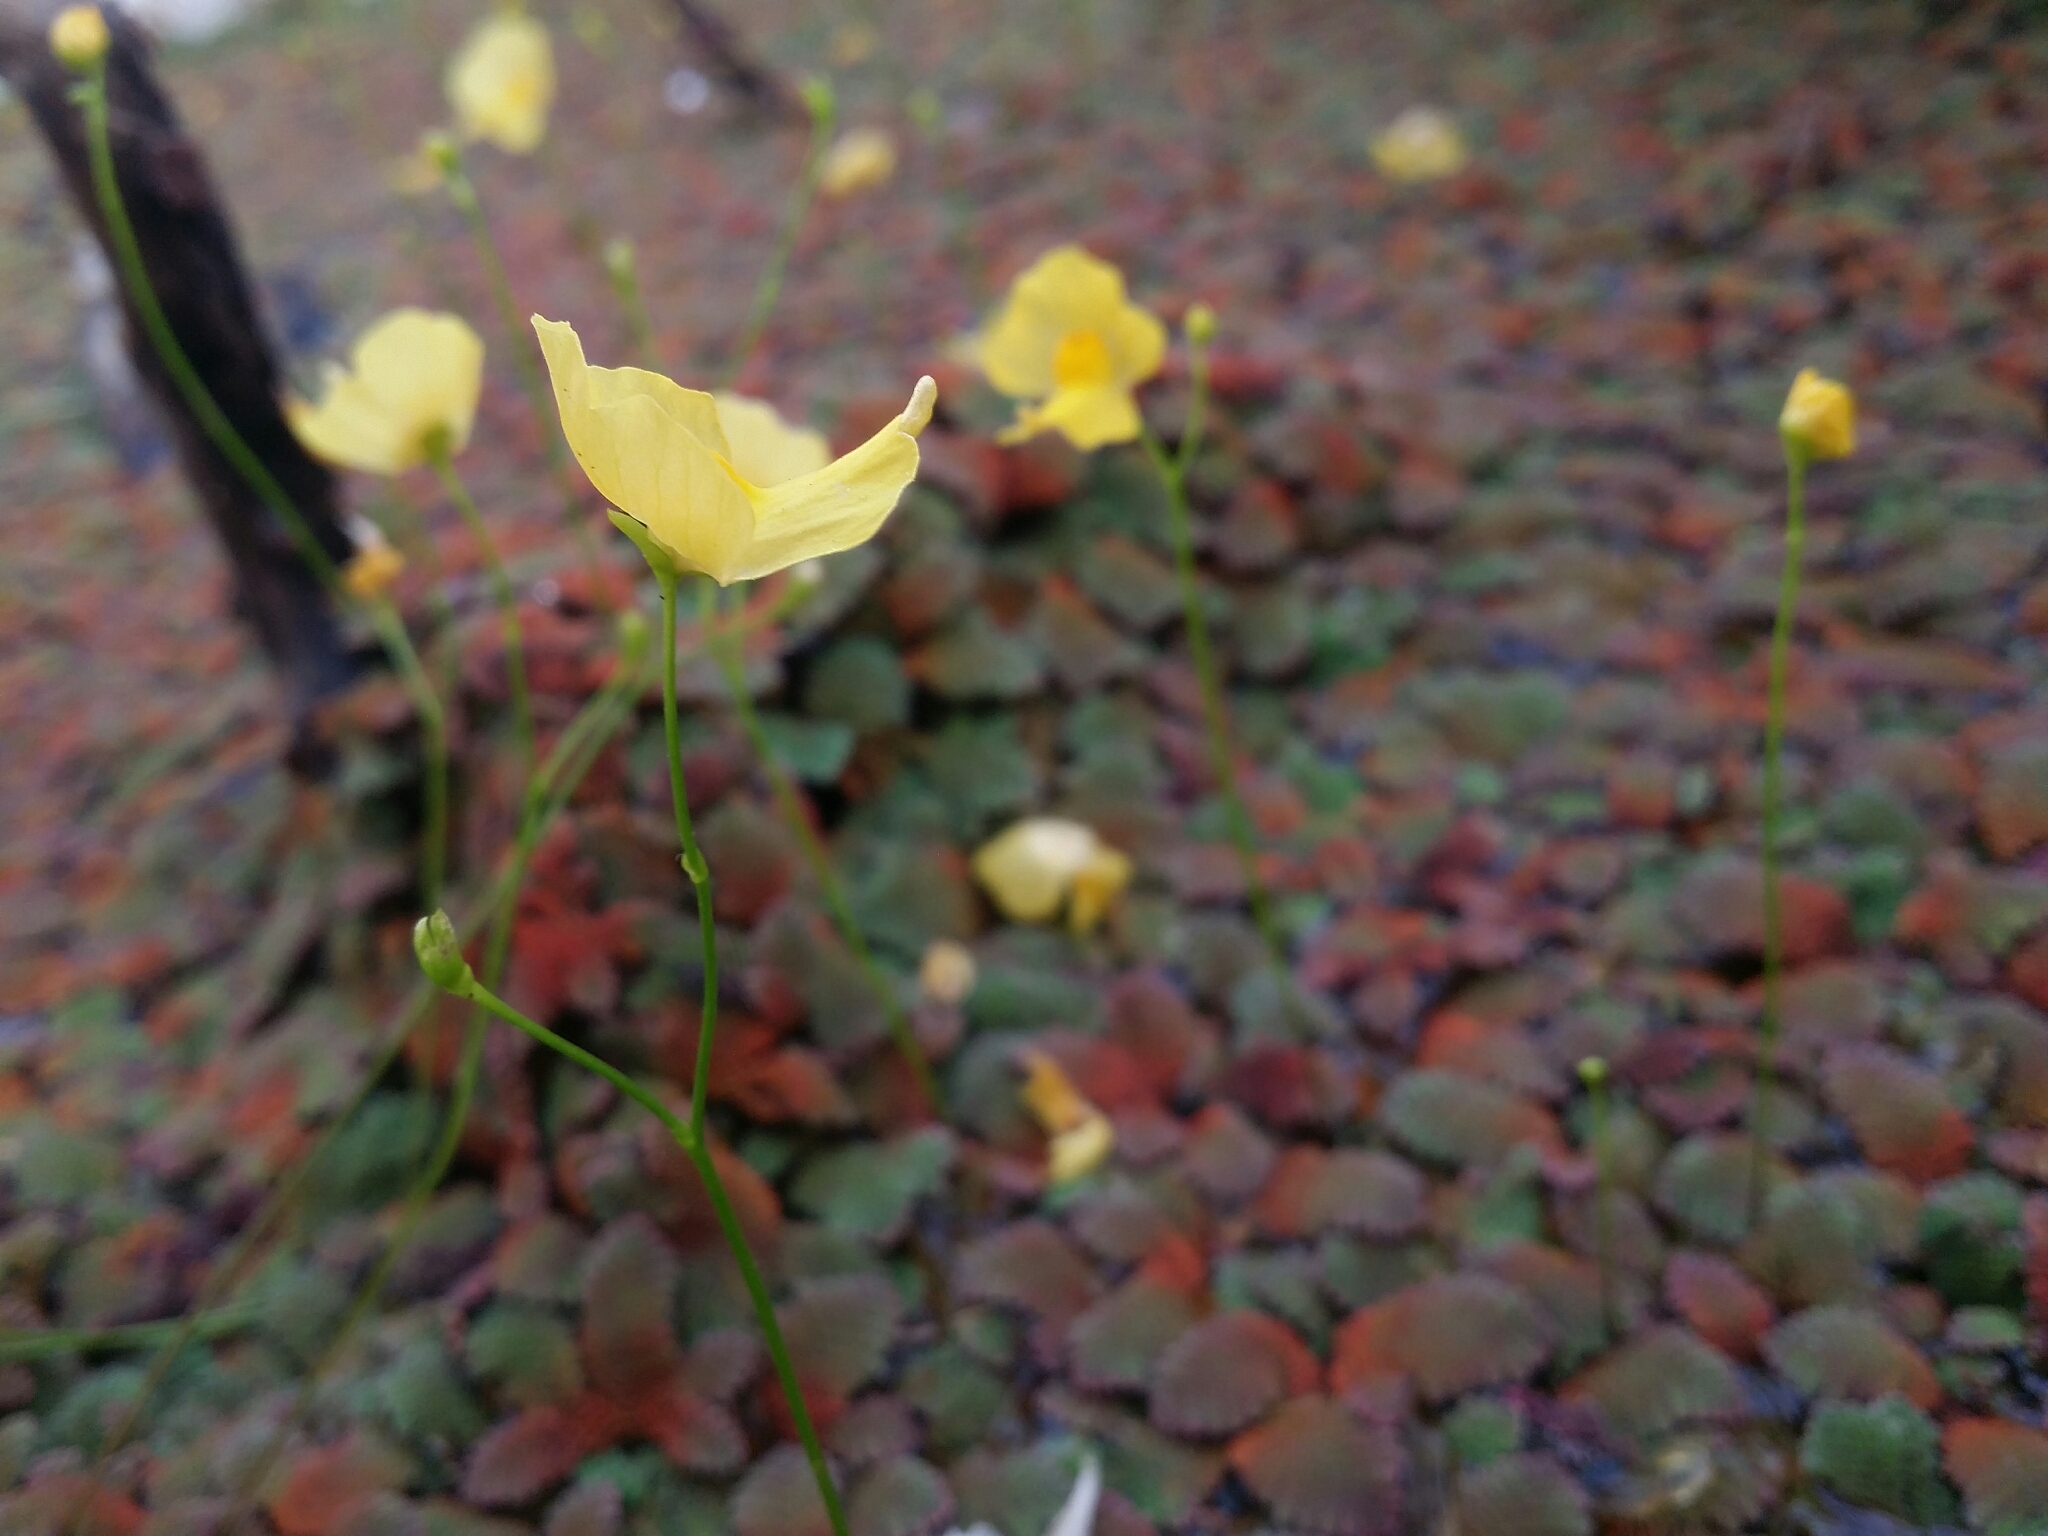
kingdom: Plantae
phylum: Tracheophyta
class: Magnoliopsida
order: Lamiales
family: Lentibulariaceae
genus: Utricularia
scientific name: Utricularia gibba
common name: Humped bladderwort
